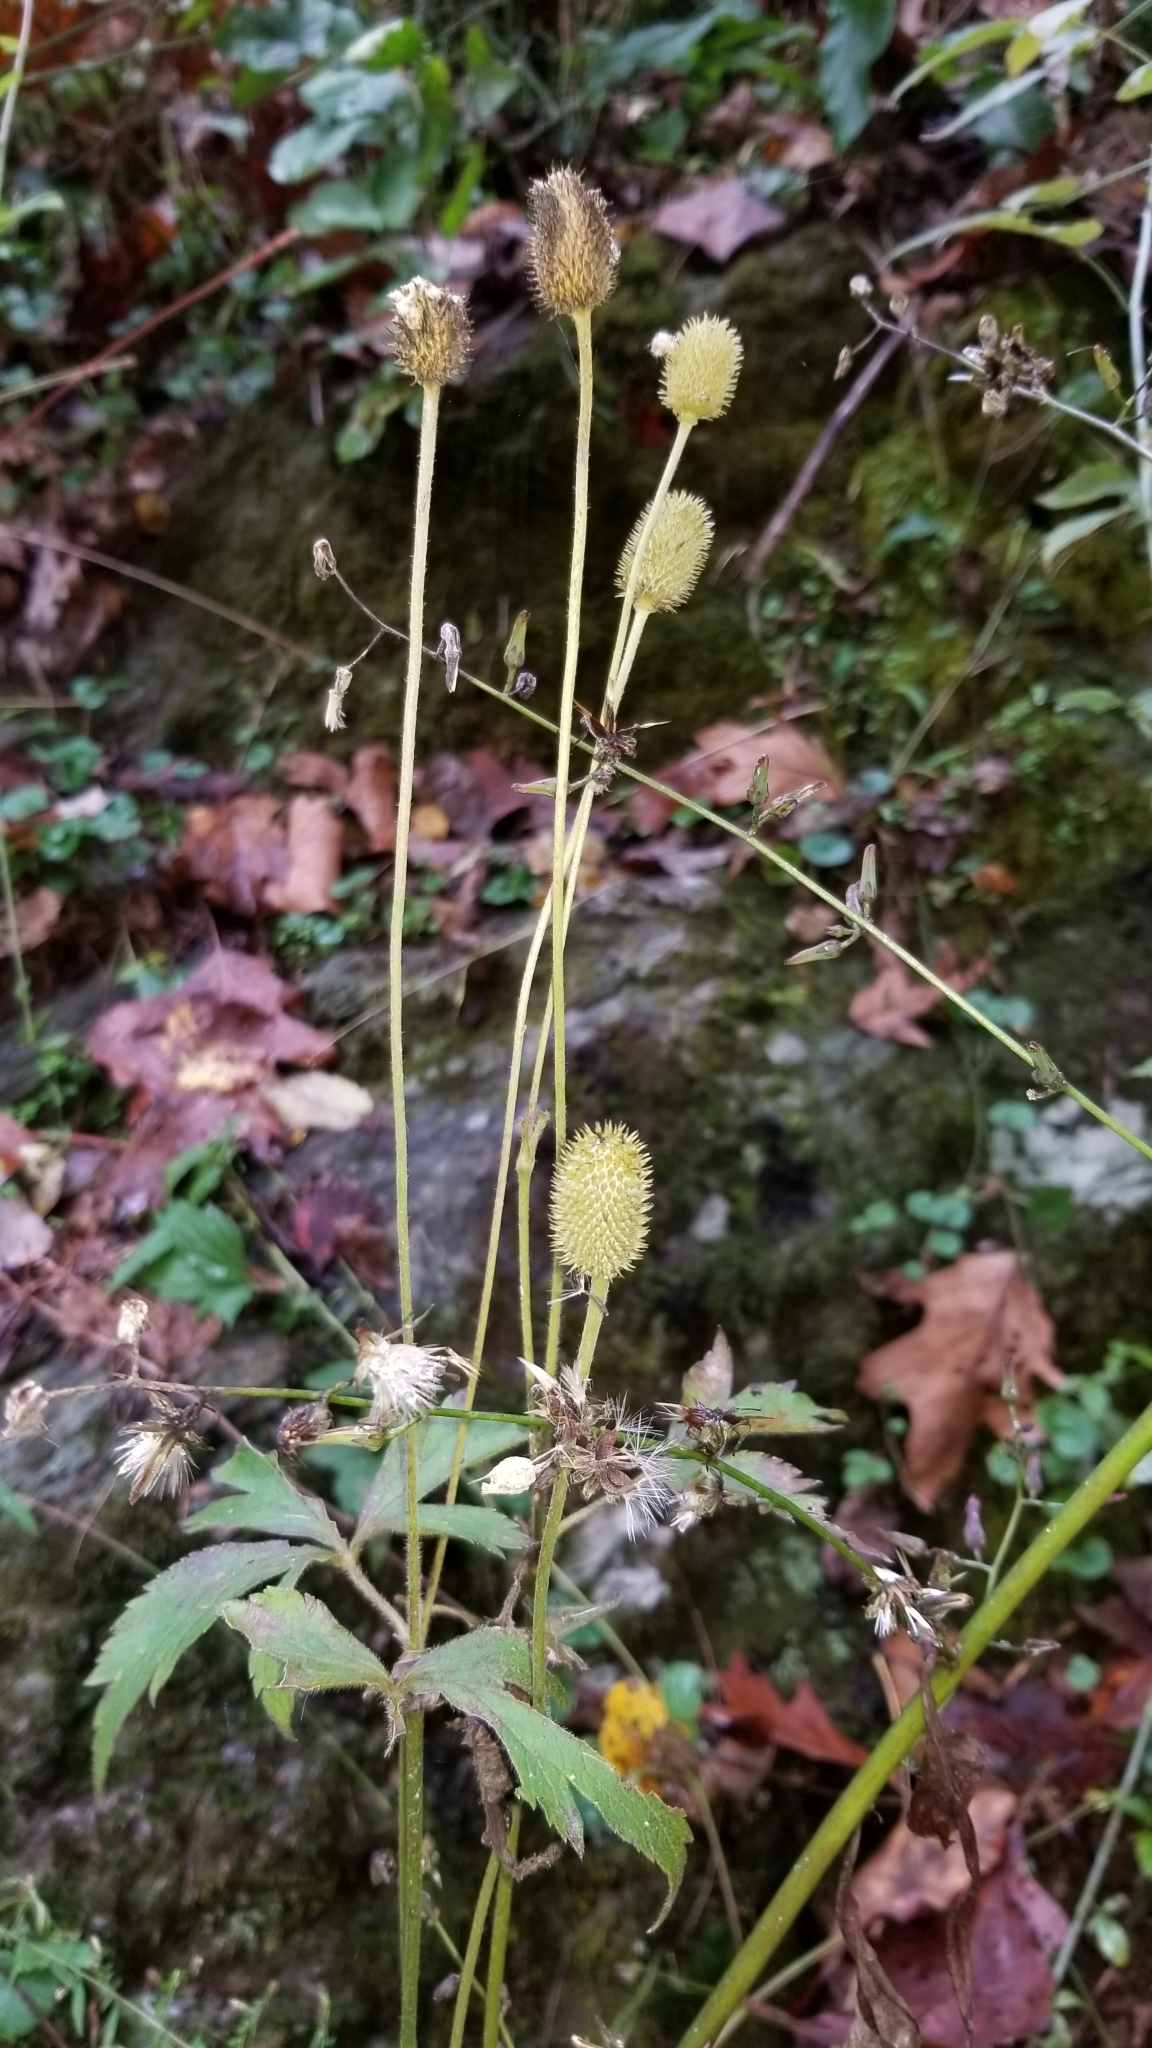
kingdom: Plantae
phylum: Tracheophyta
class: Magnoliopsida
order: Ranunculales
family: Ranunculaceae
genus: Anemone
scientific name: Anemone virginiana
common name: Tall anemone
